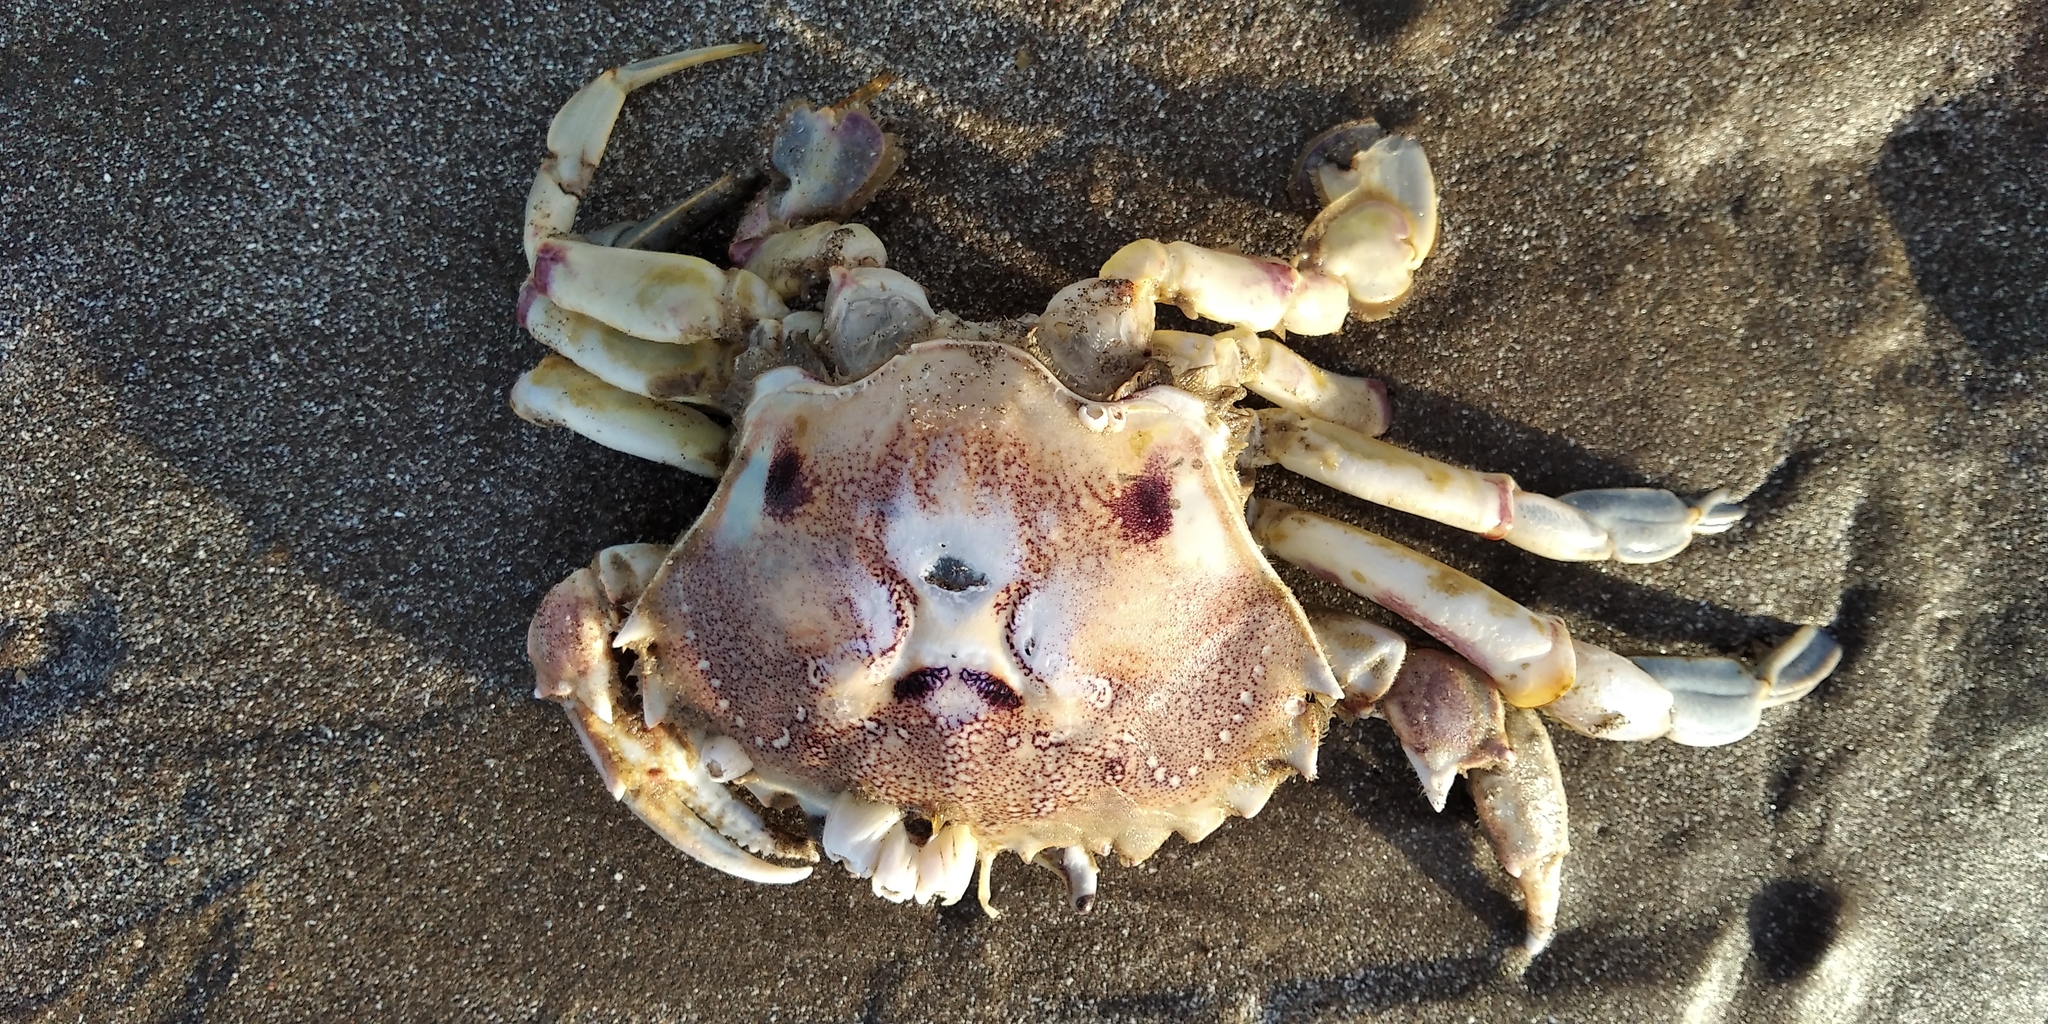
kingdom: Animalia
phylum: Arthropoda
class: Malacostraca
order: Decapoda
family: Ovalipidae
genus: Ovalipes
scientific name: Ovalipes trimaculatus
